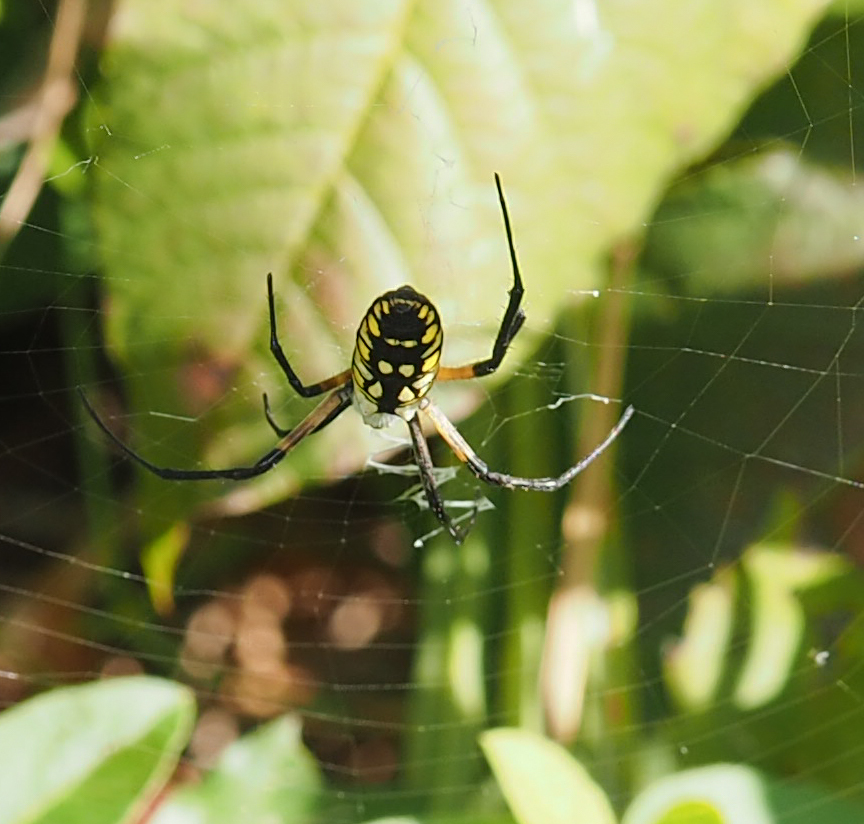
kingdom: Animalia
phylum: Arthropoda
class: Arachnida
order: Araneae
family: Araneidae
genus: Argiope
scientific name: Argiope aurantia
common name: Orb weavers
